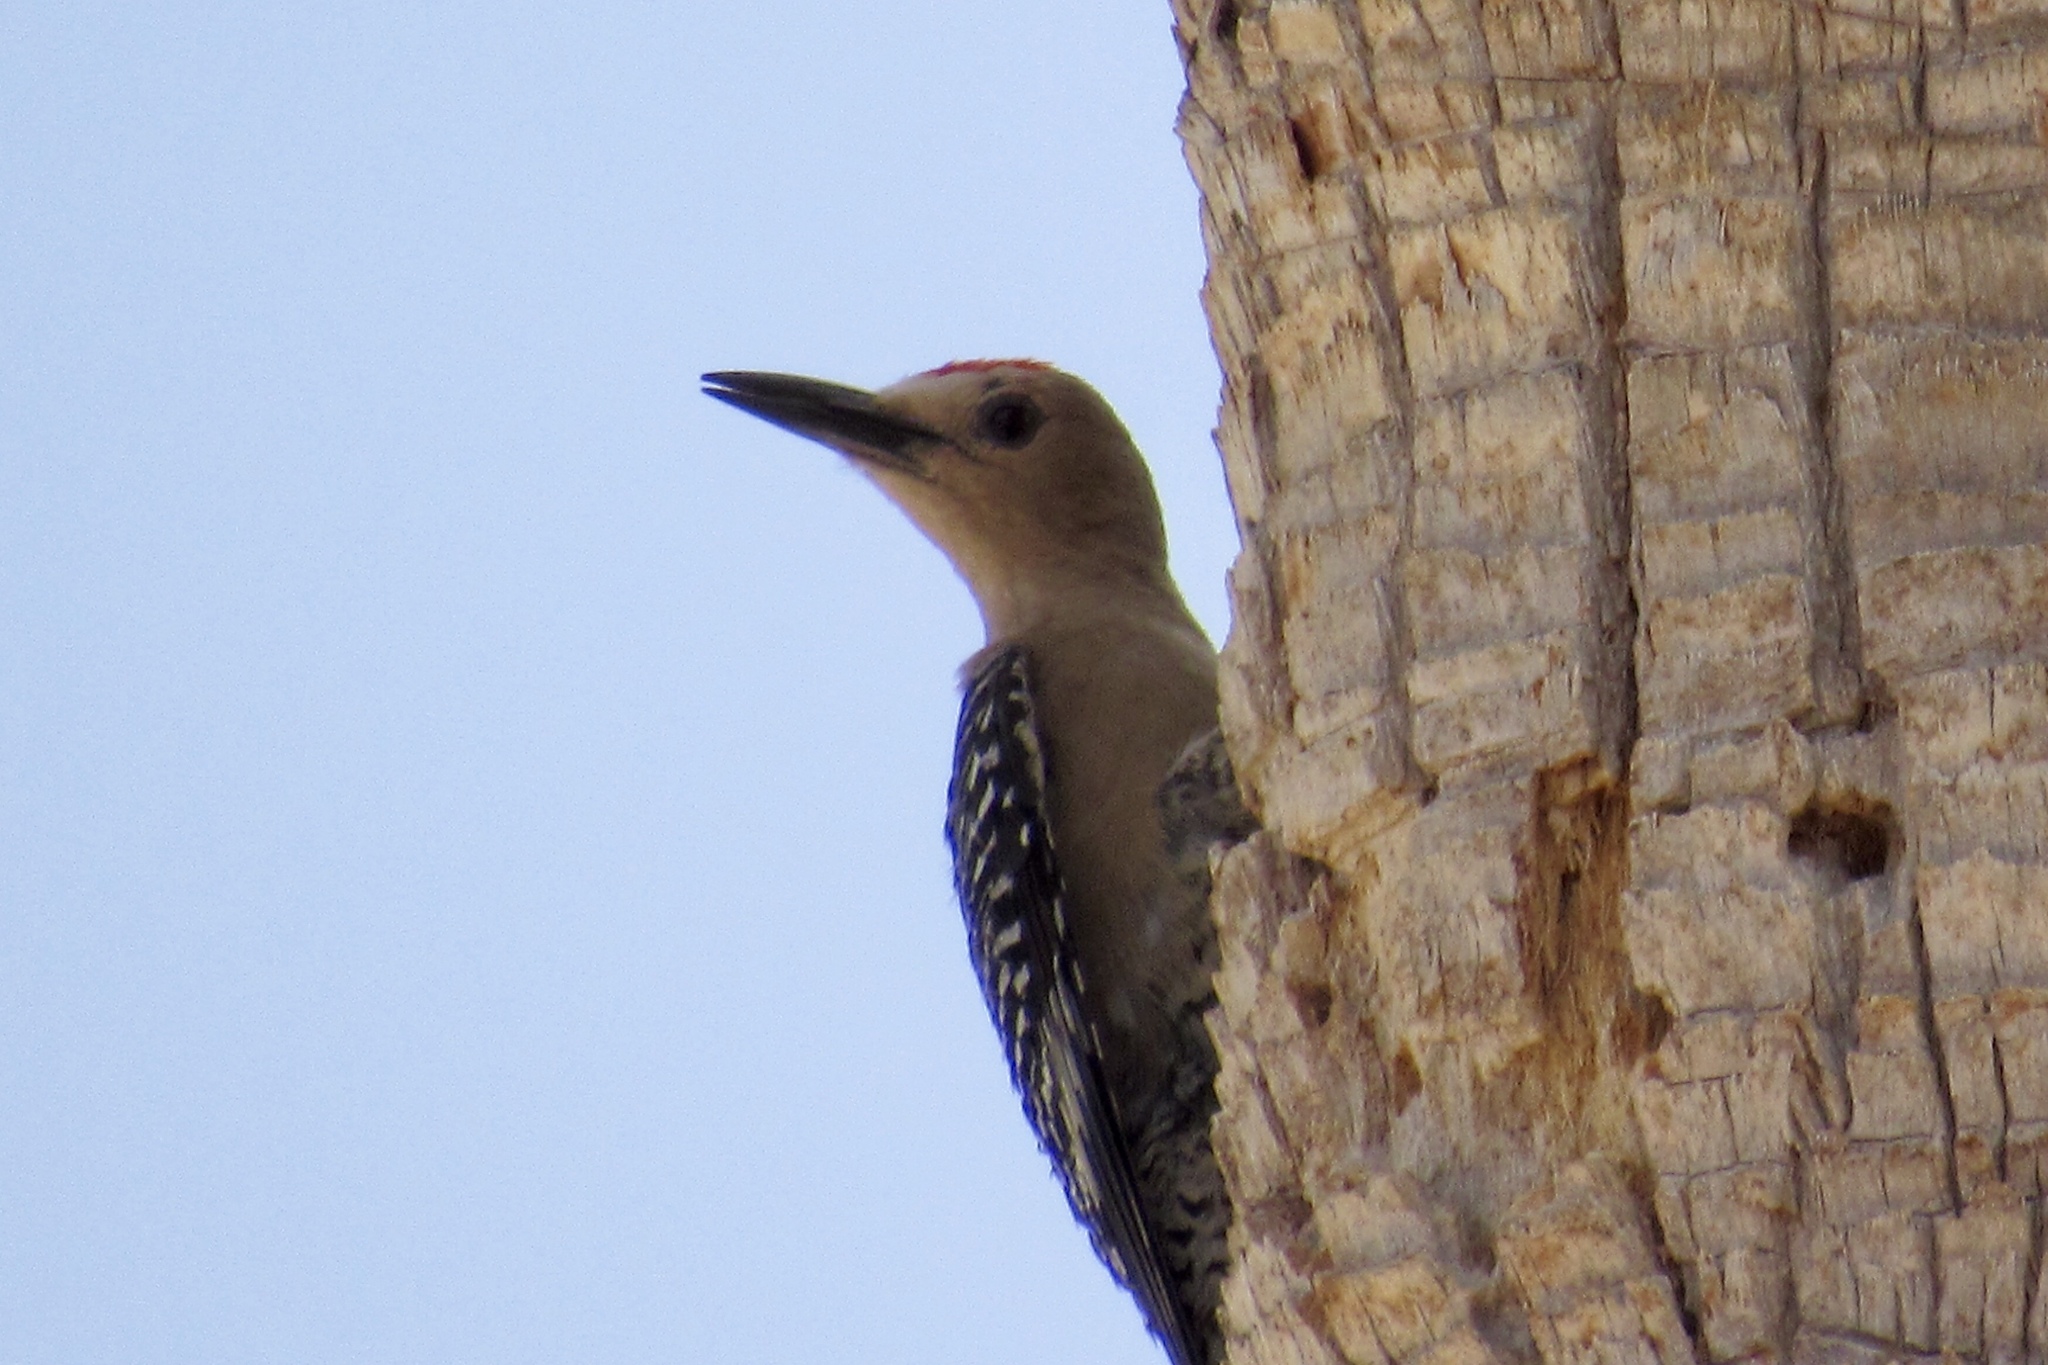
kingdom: Animalia
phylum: Chordata
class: Aves
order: Piciformes
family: Picidae
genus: Melanerpes
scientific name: Melanerpes uropygialis
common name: Gila woodpecker
